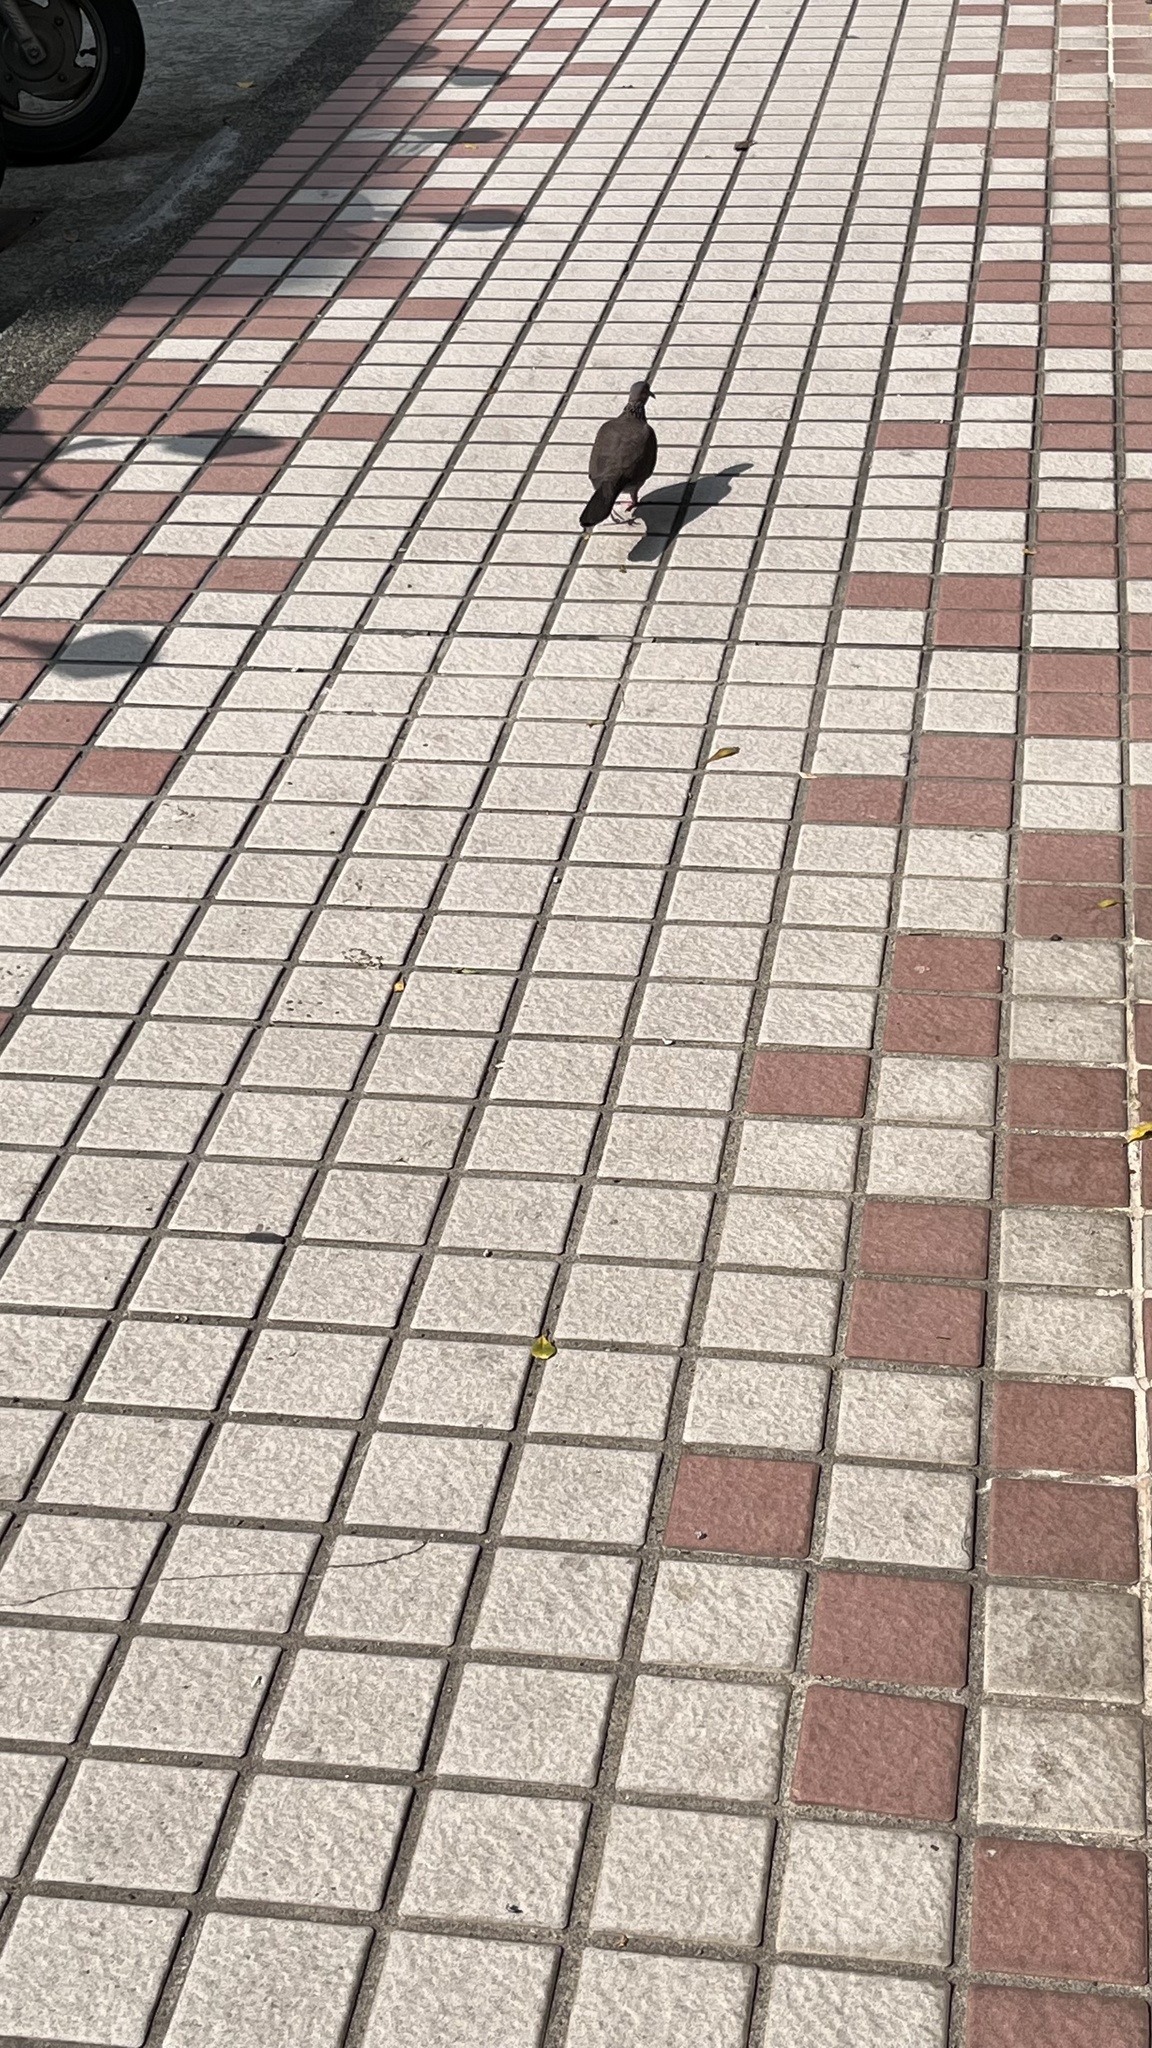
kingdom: Animalia
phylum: Chordata
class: Aves
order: Columbiformes
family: Columbidae
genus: Spilopelia
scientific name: Spilopelia chinensis
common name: Spotted dove
